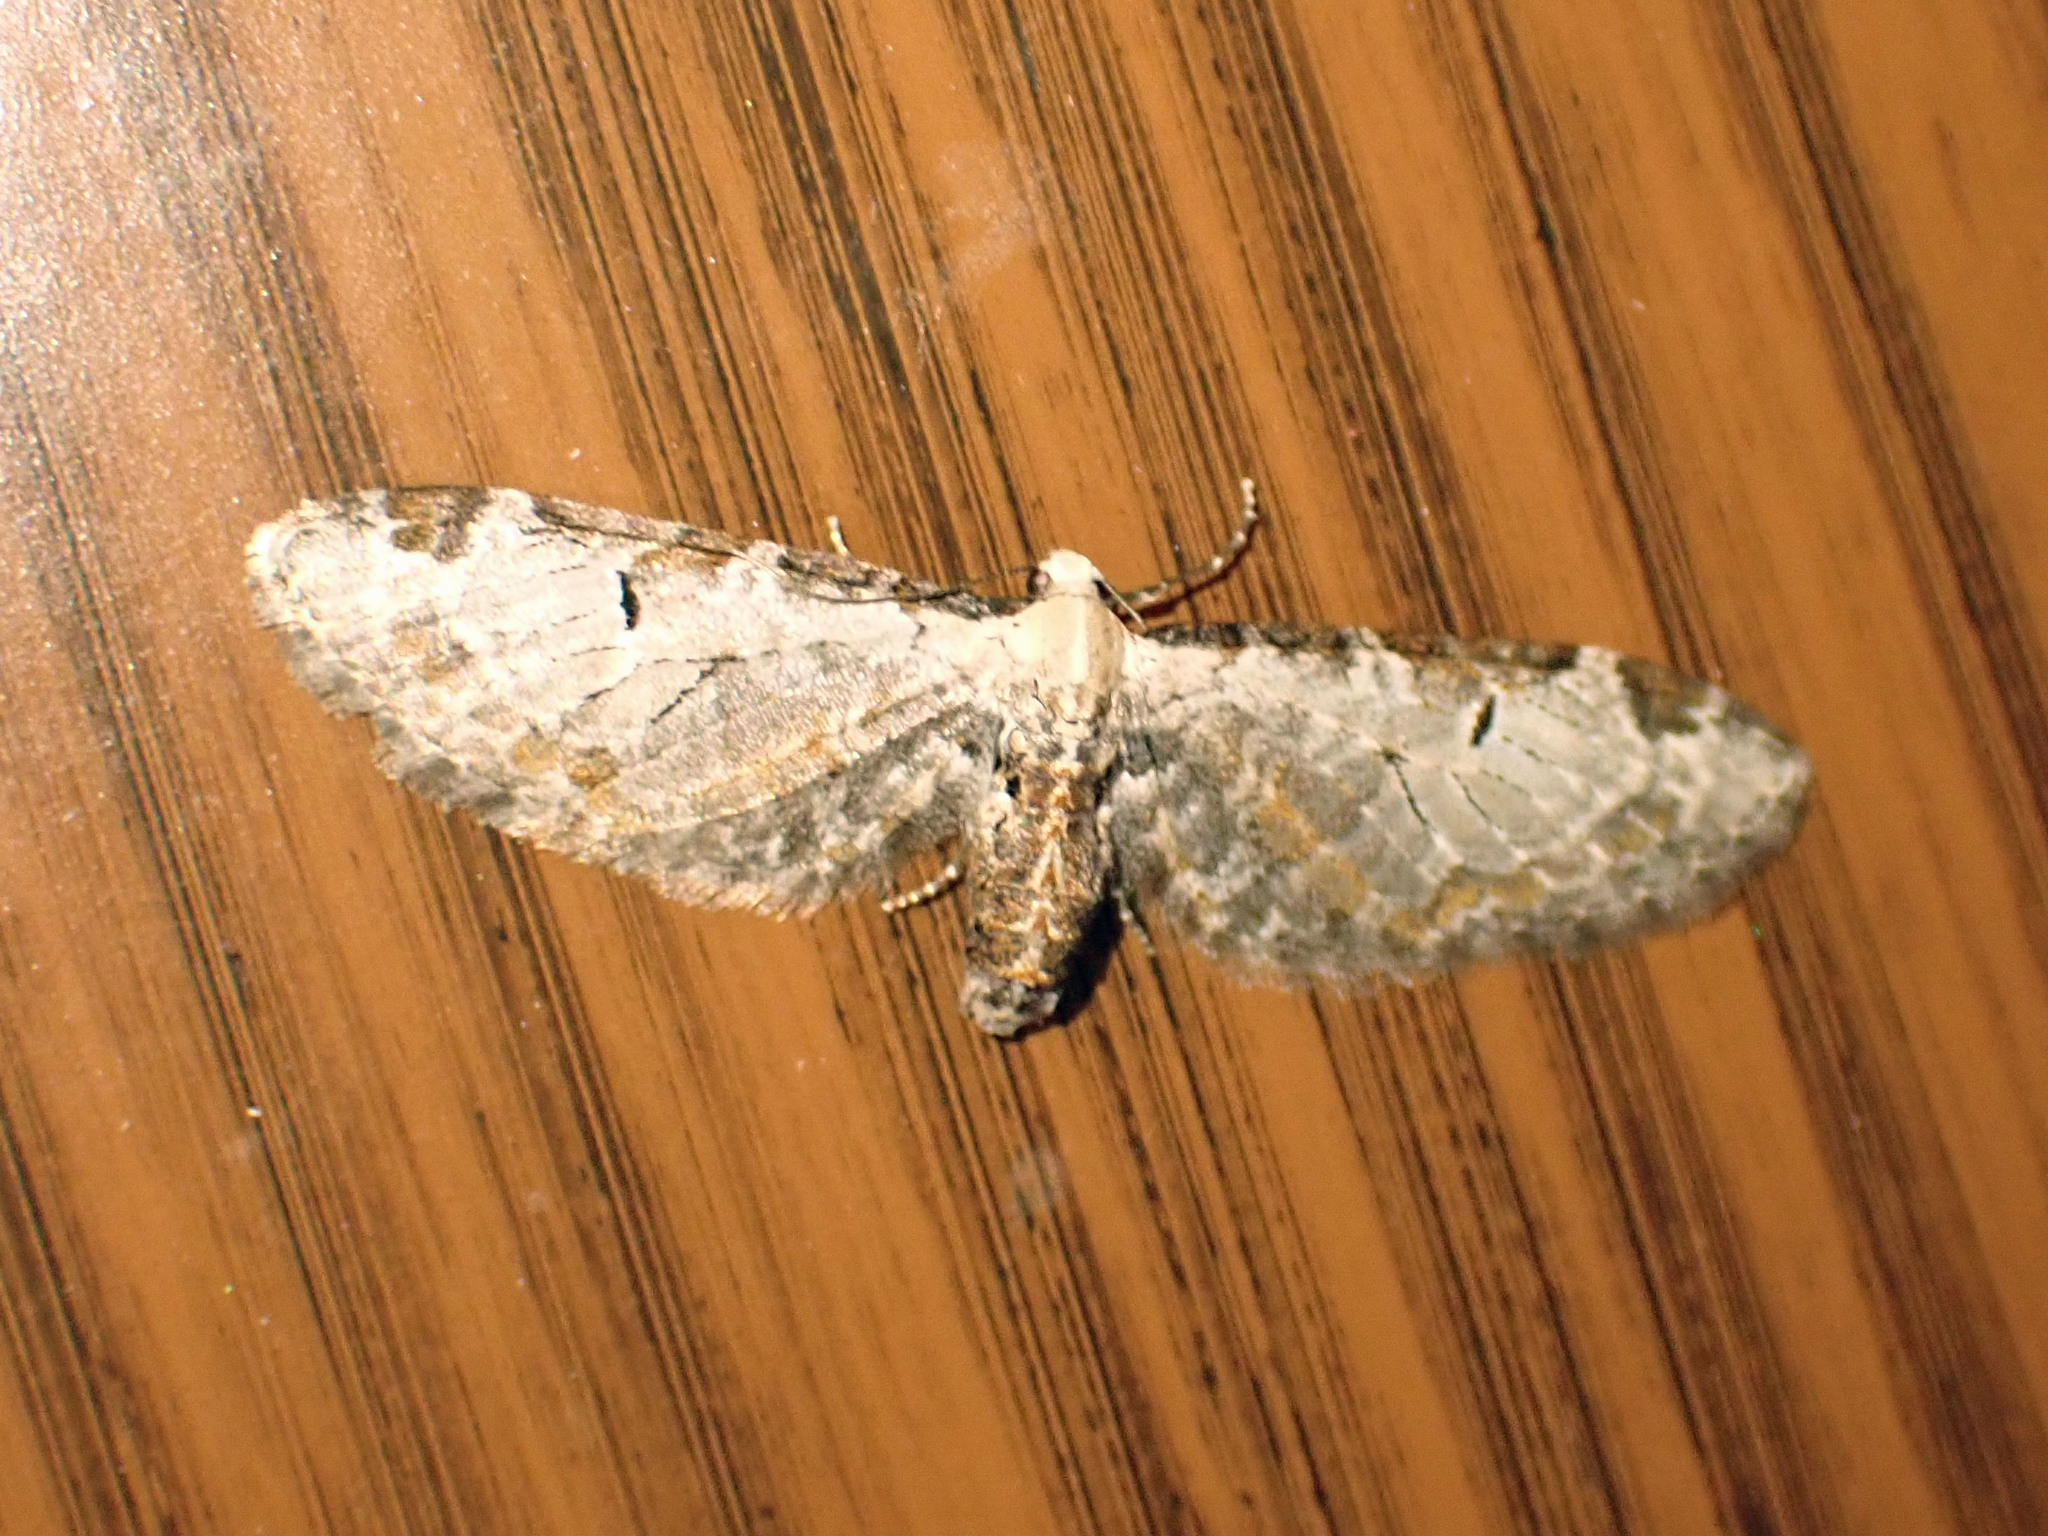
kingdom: Animalia
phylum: Arthropoda
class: Insecta
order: Lepidoptera
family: Geometridae
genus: Eupithecia
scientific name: Eupithecia ravocostaliata
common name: Great varigated pug
